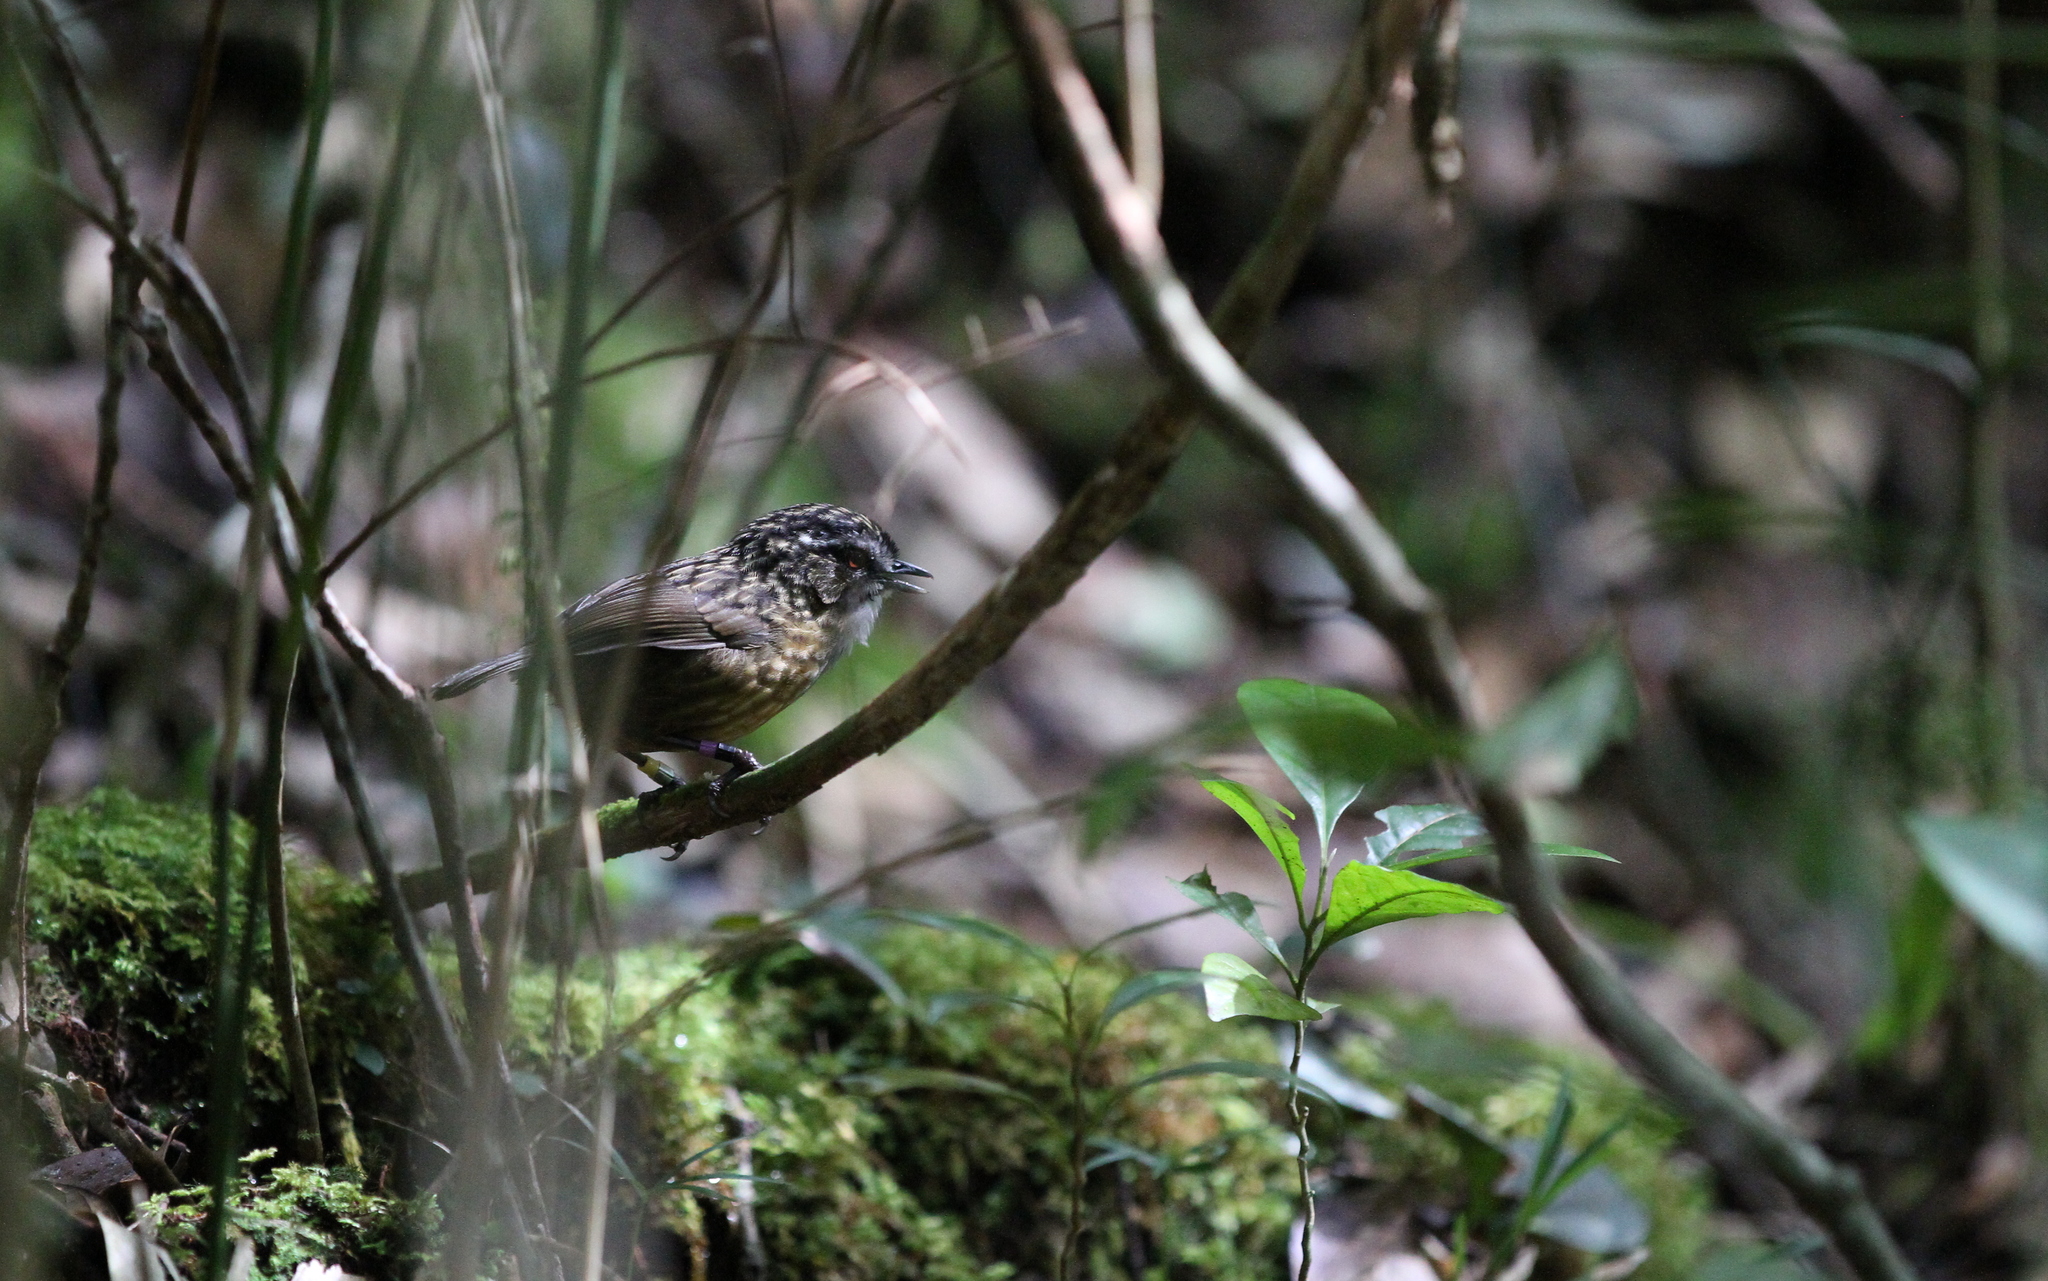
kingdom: Animalia
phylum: Chordata
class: Aves
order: Passeriformes
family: Pellorneidae
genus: Napothera
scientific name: Napothera crassa
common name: Mountain wren-babbler
